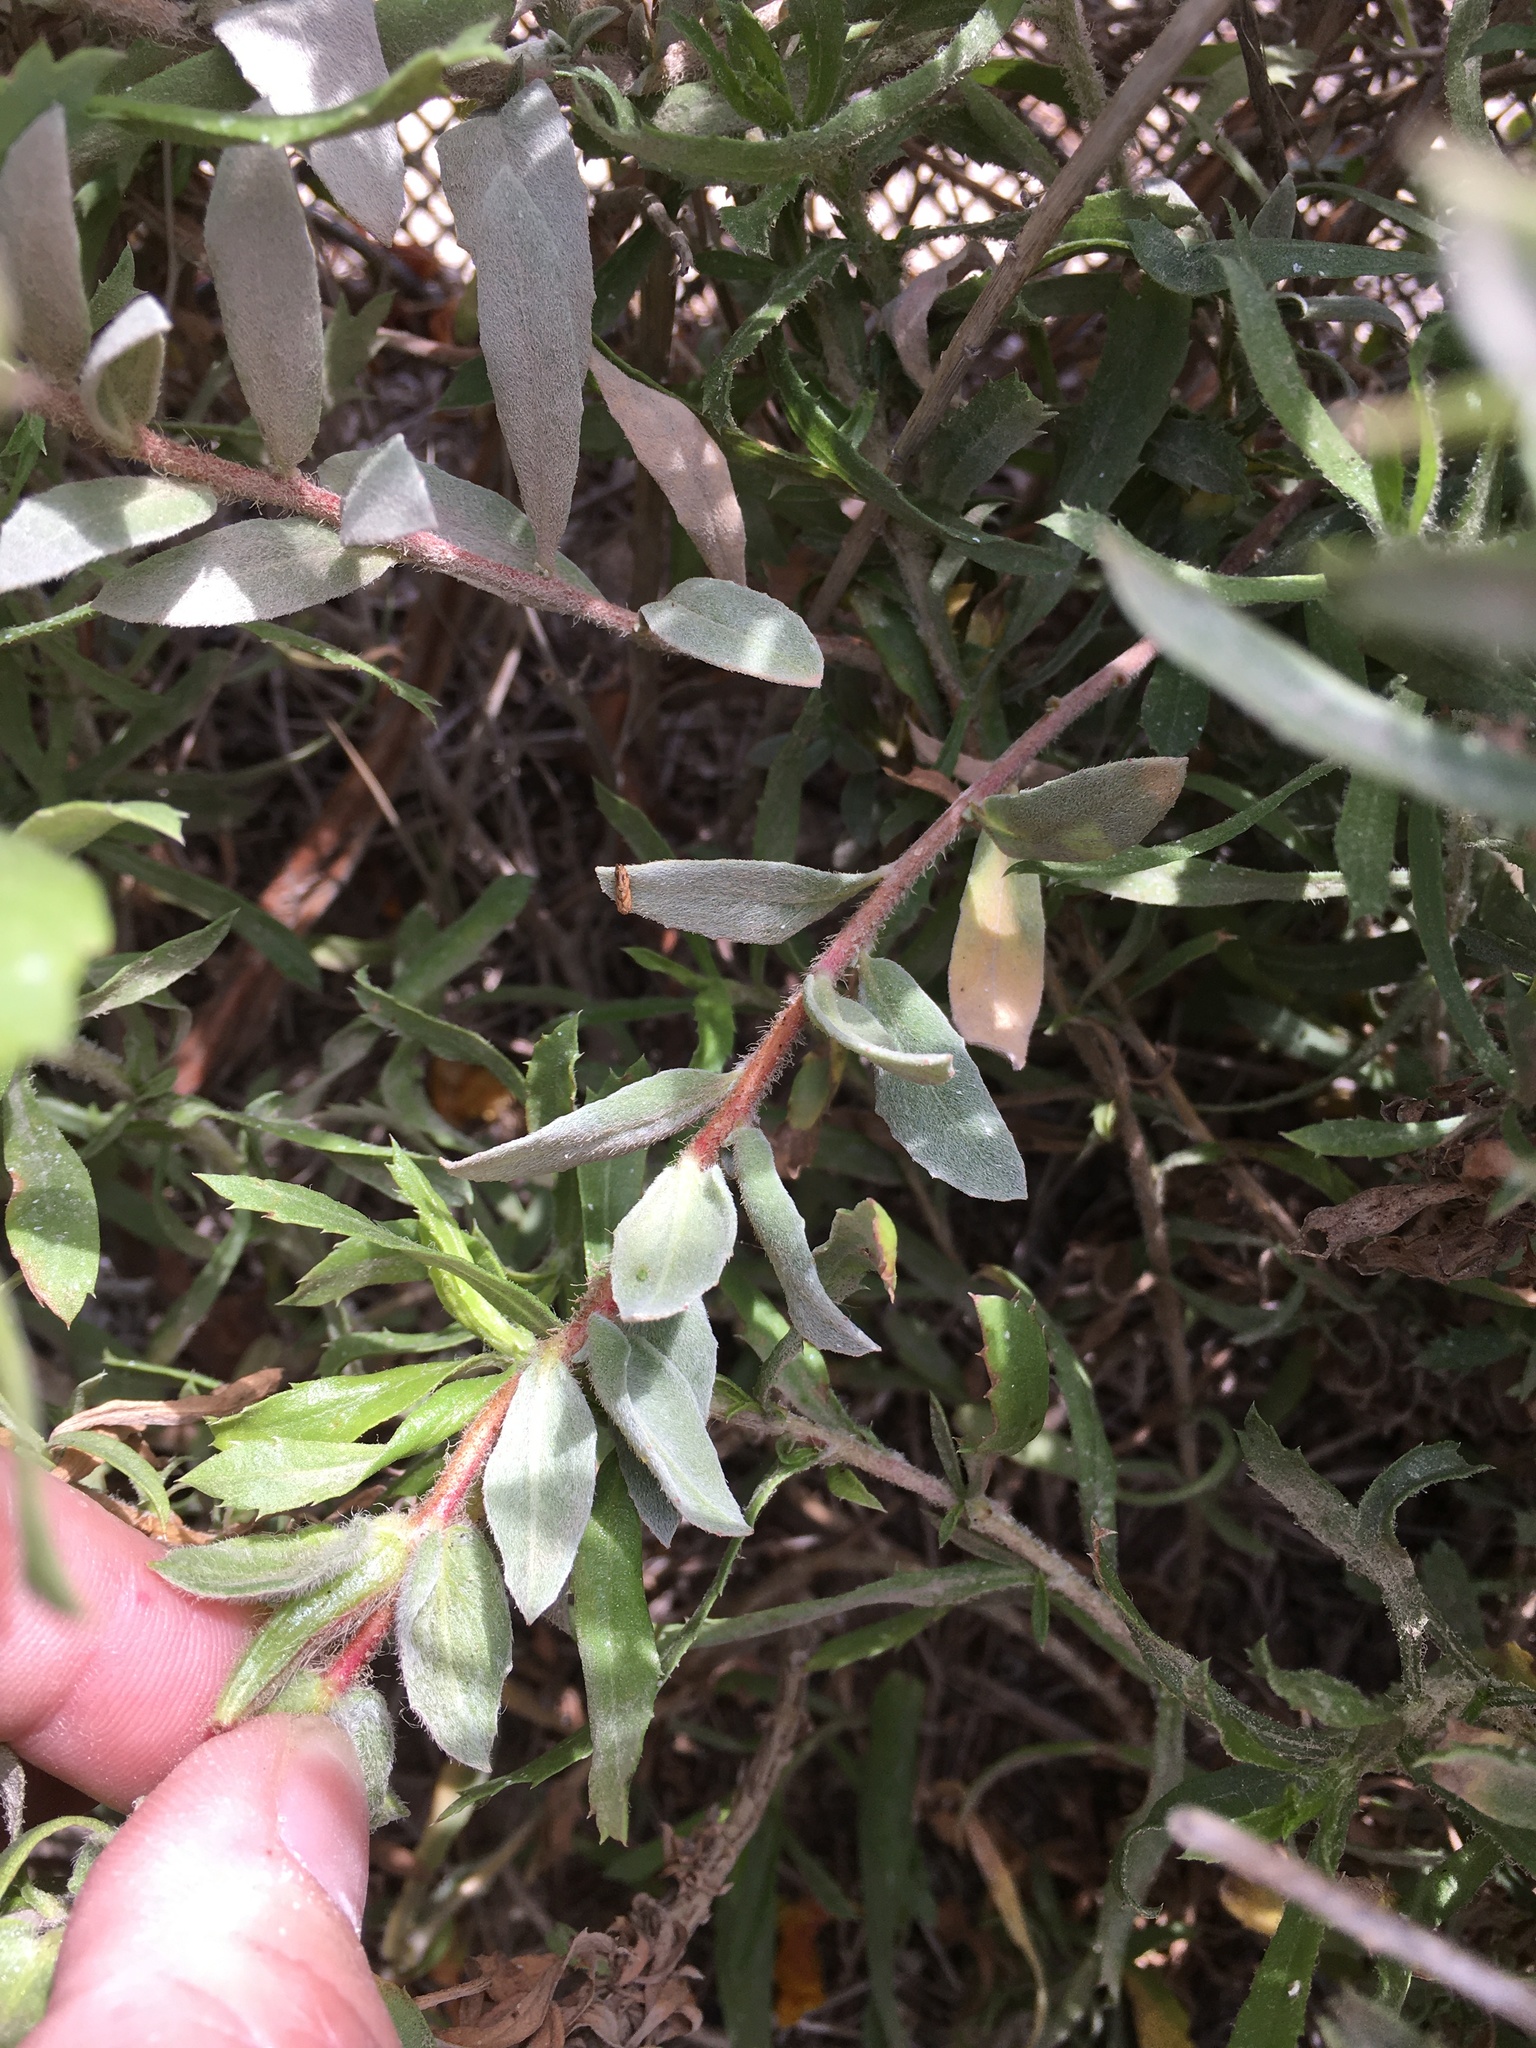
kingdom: Plantae
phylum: Tracheophyta
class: Magnoliopsida
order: Myrtales
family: Onagraceae
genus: Camissoniopsis
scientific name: Camissoniopsis cheiranthifolia
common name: Beach suncup
